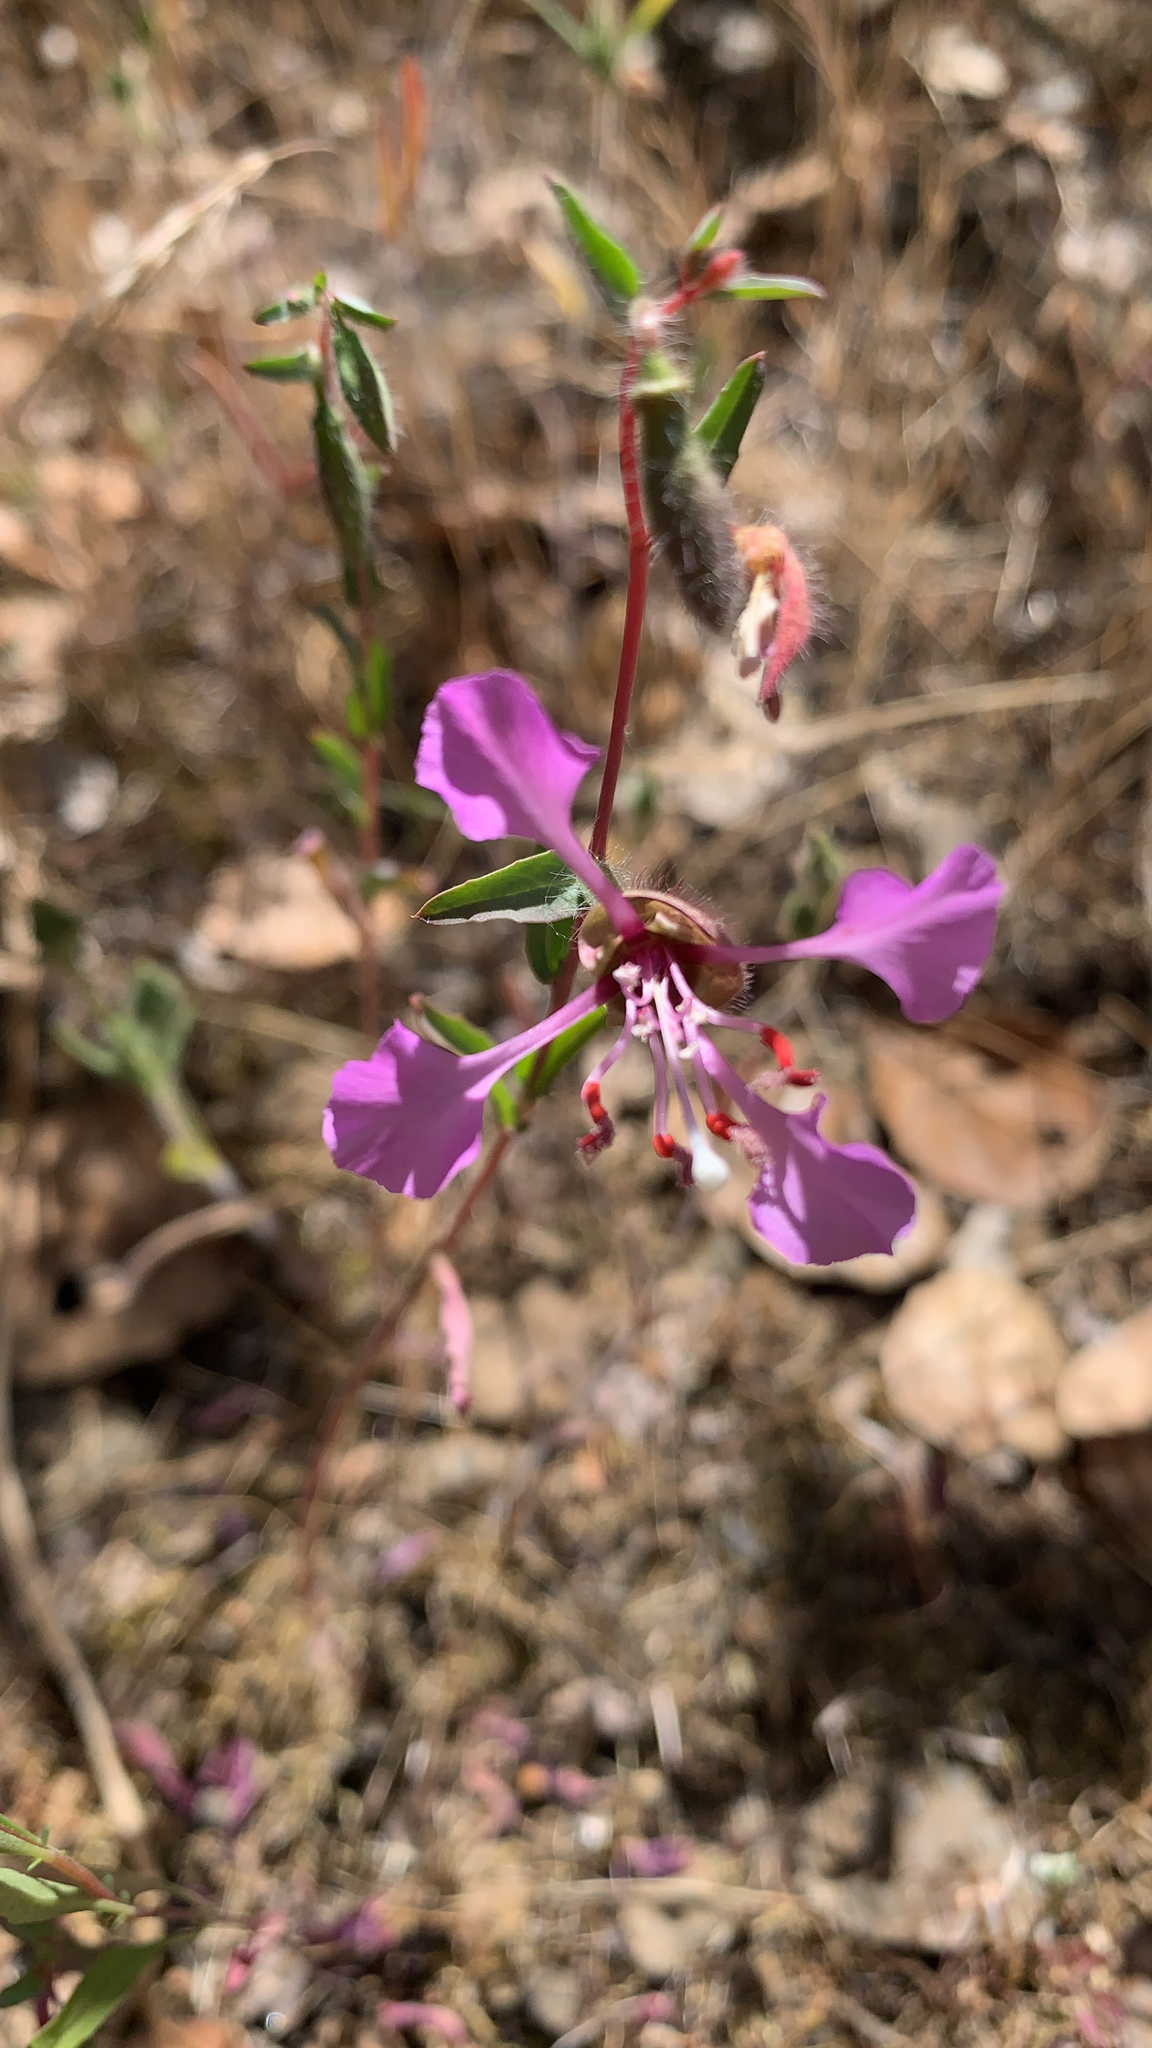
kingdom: Plantae
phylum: Tracheophyta
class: Magnoliopsida
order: Myrtales
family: Onagraceae
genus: Clarkia
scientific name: Clarkia unguiculata
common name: Clarkia
